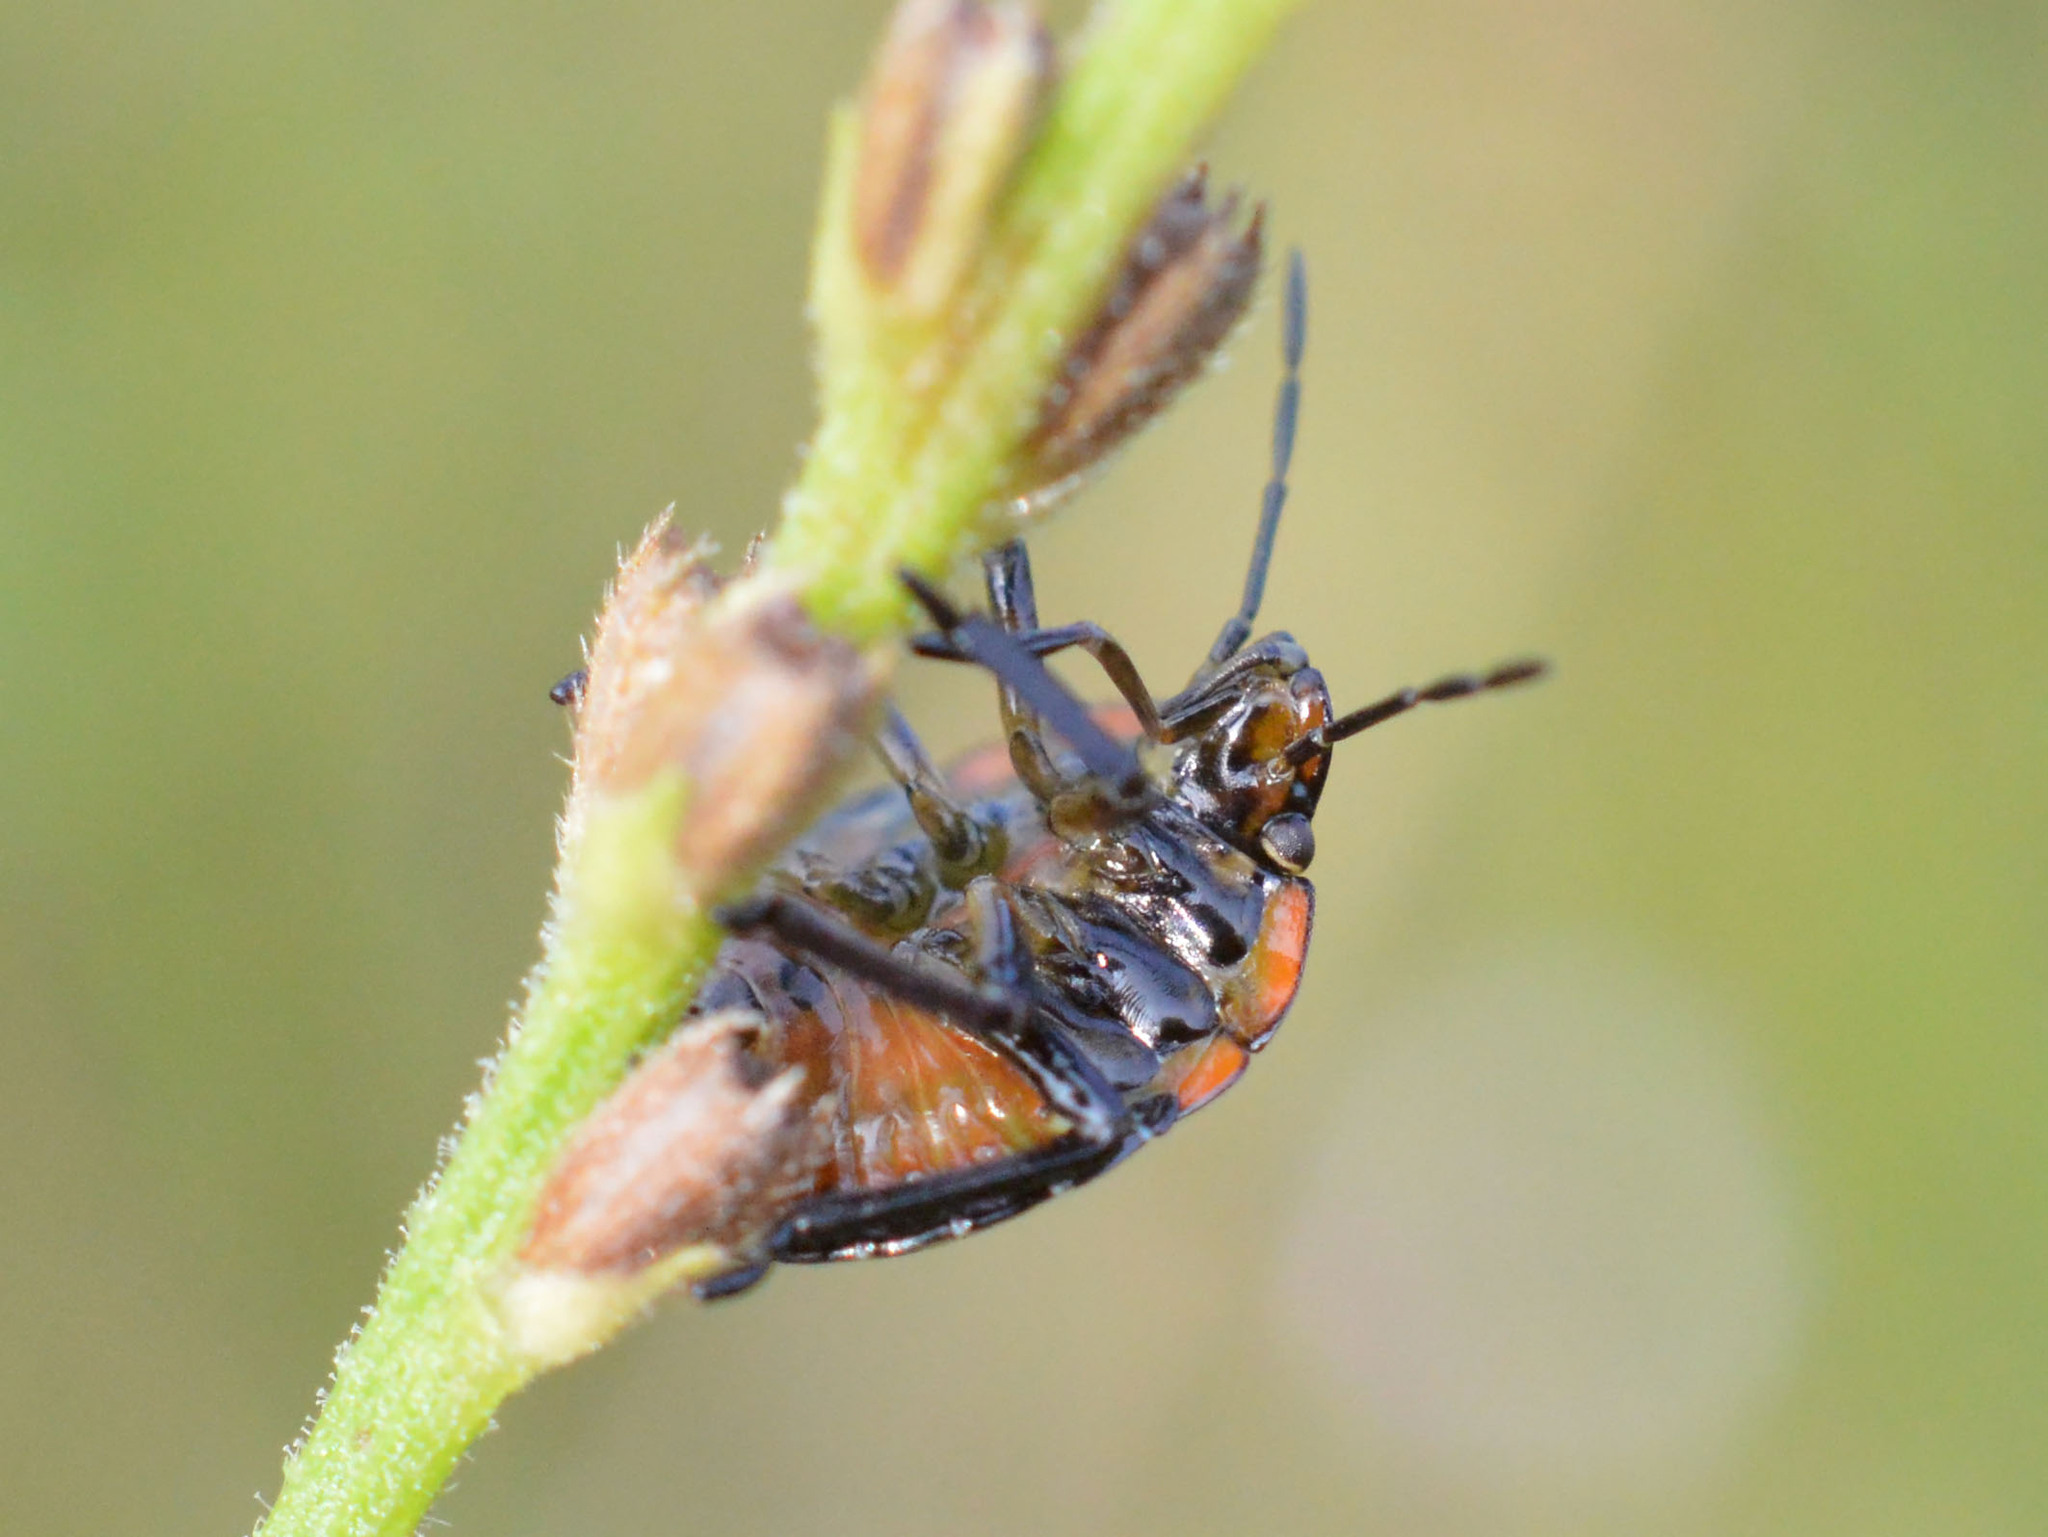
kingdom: Animalia
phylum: Arthropoda
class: Insecta
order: Hemiptera
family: Pentatomidae
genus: Nezara
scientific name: Nezara viridula
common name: Southern green stink bug
